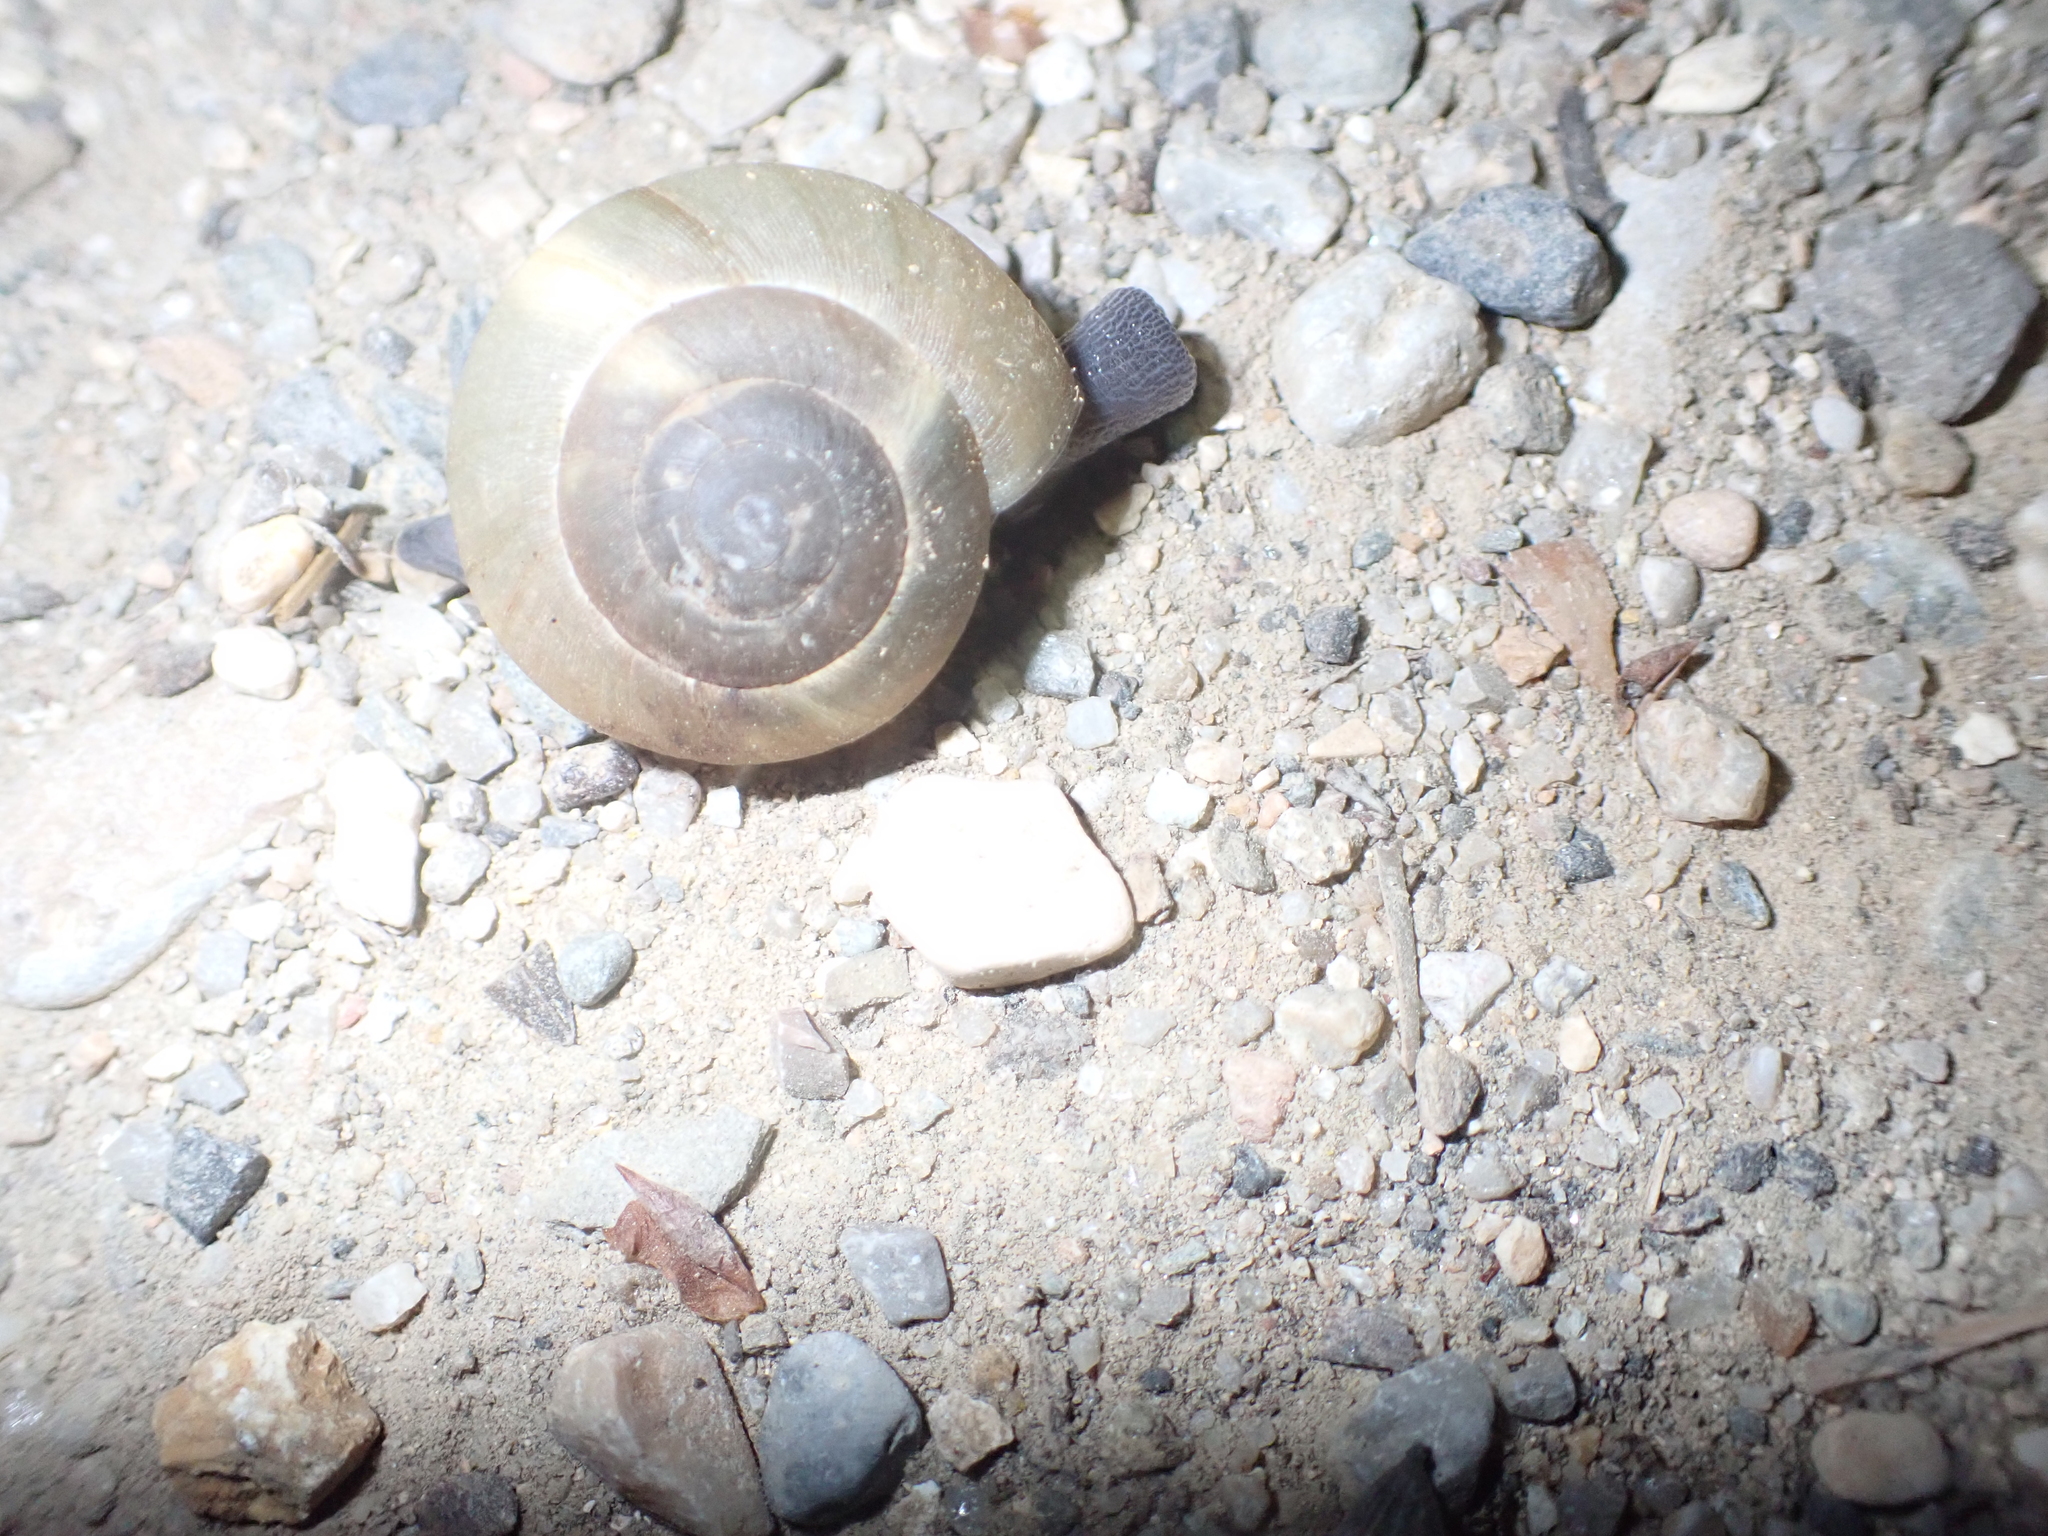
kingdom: Animalia
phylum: Mollusca
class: Gastropoda
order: Stylommatophora
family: Zonitidae
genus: Zonites
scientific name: Zonites algirus
